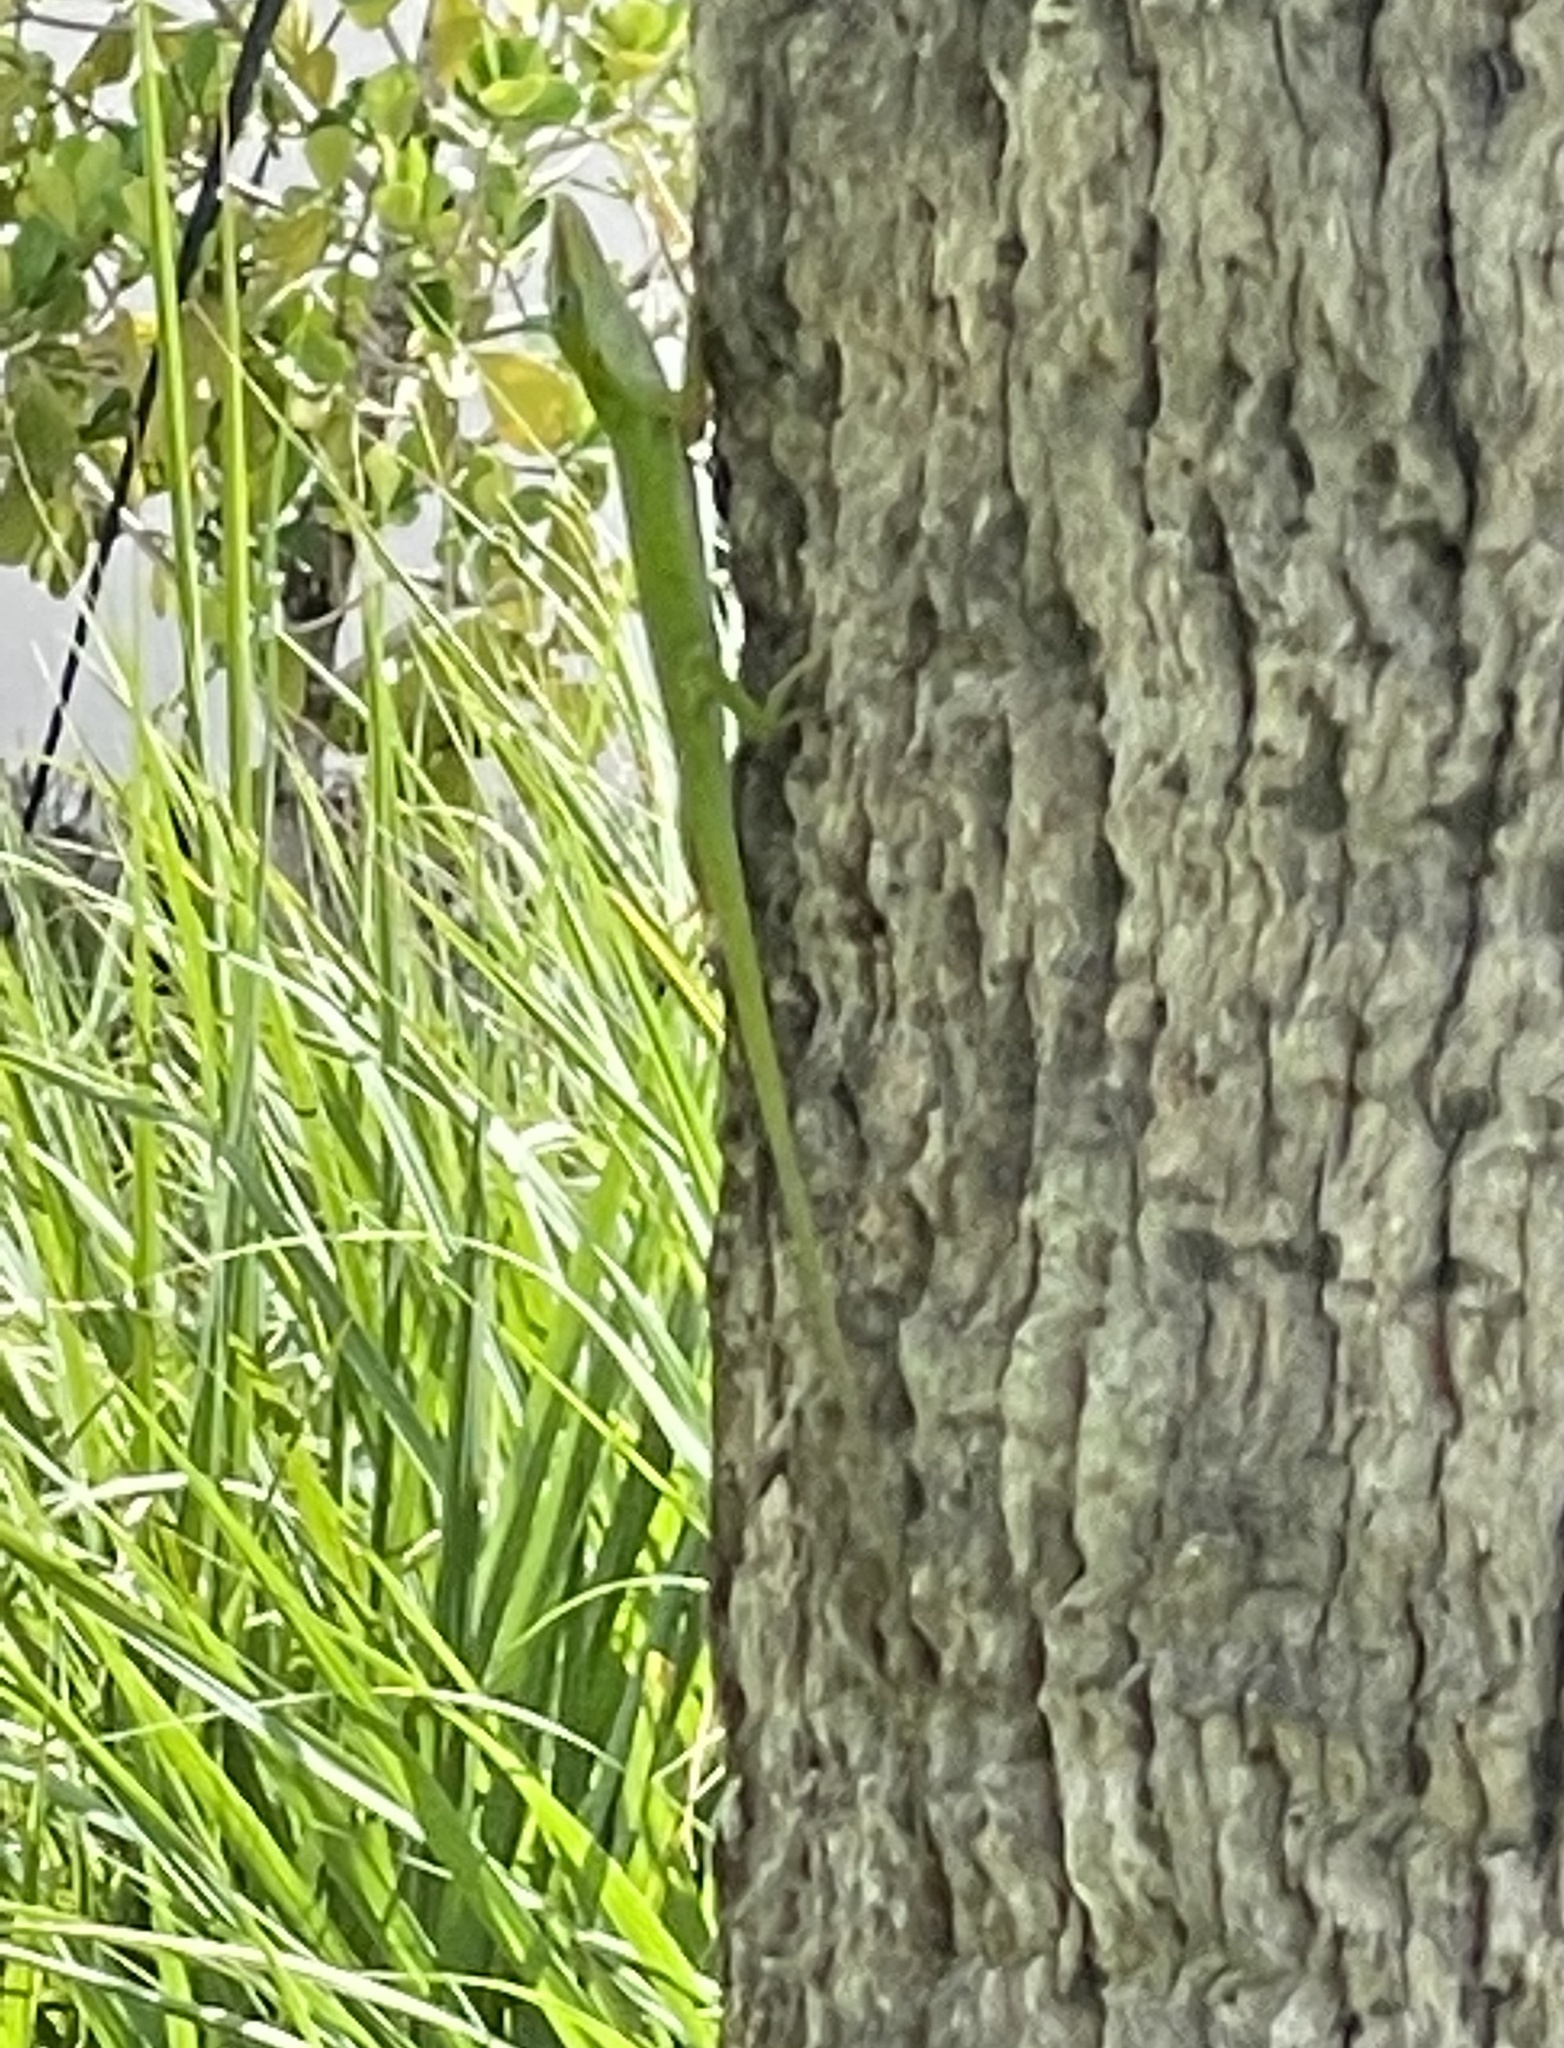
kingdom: Animalia
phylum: Chordata
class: Squamata
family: Dactyloidae
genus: Anolis
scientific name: Anolis carolinensis
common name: Green anole
